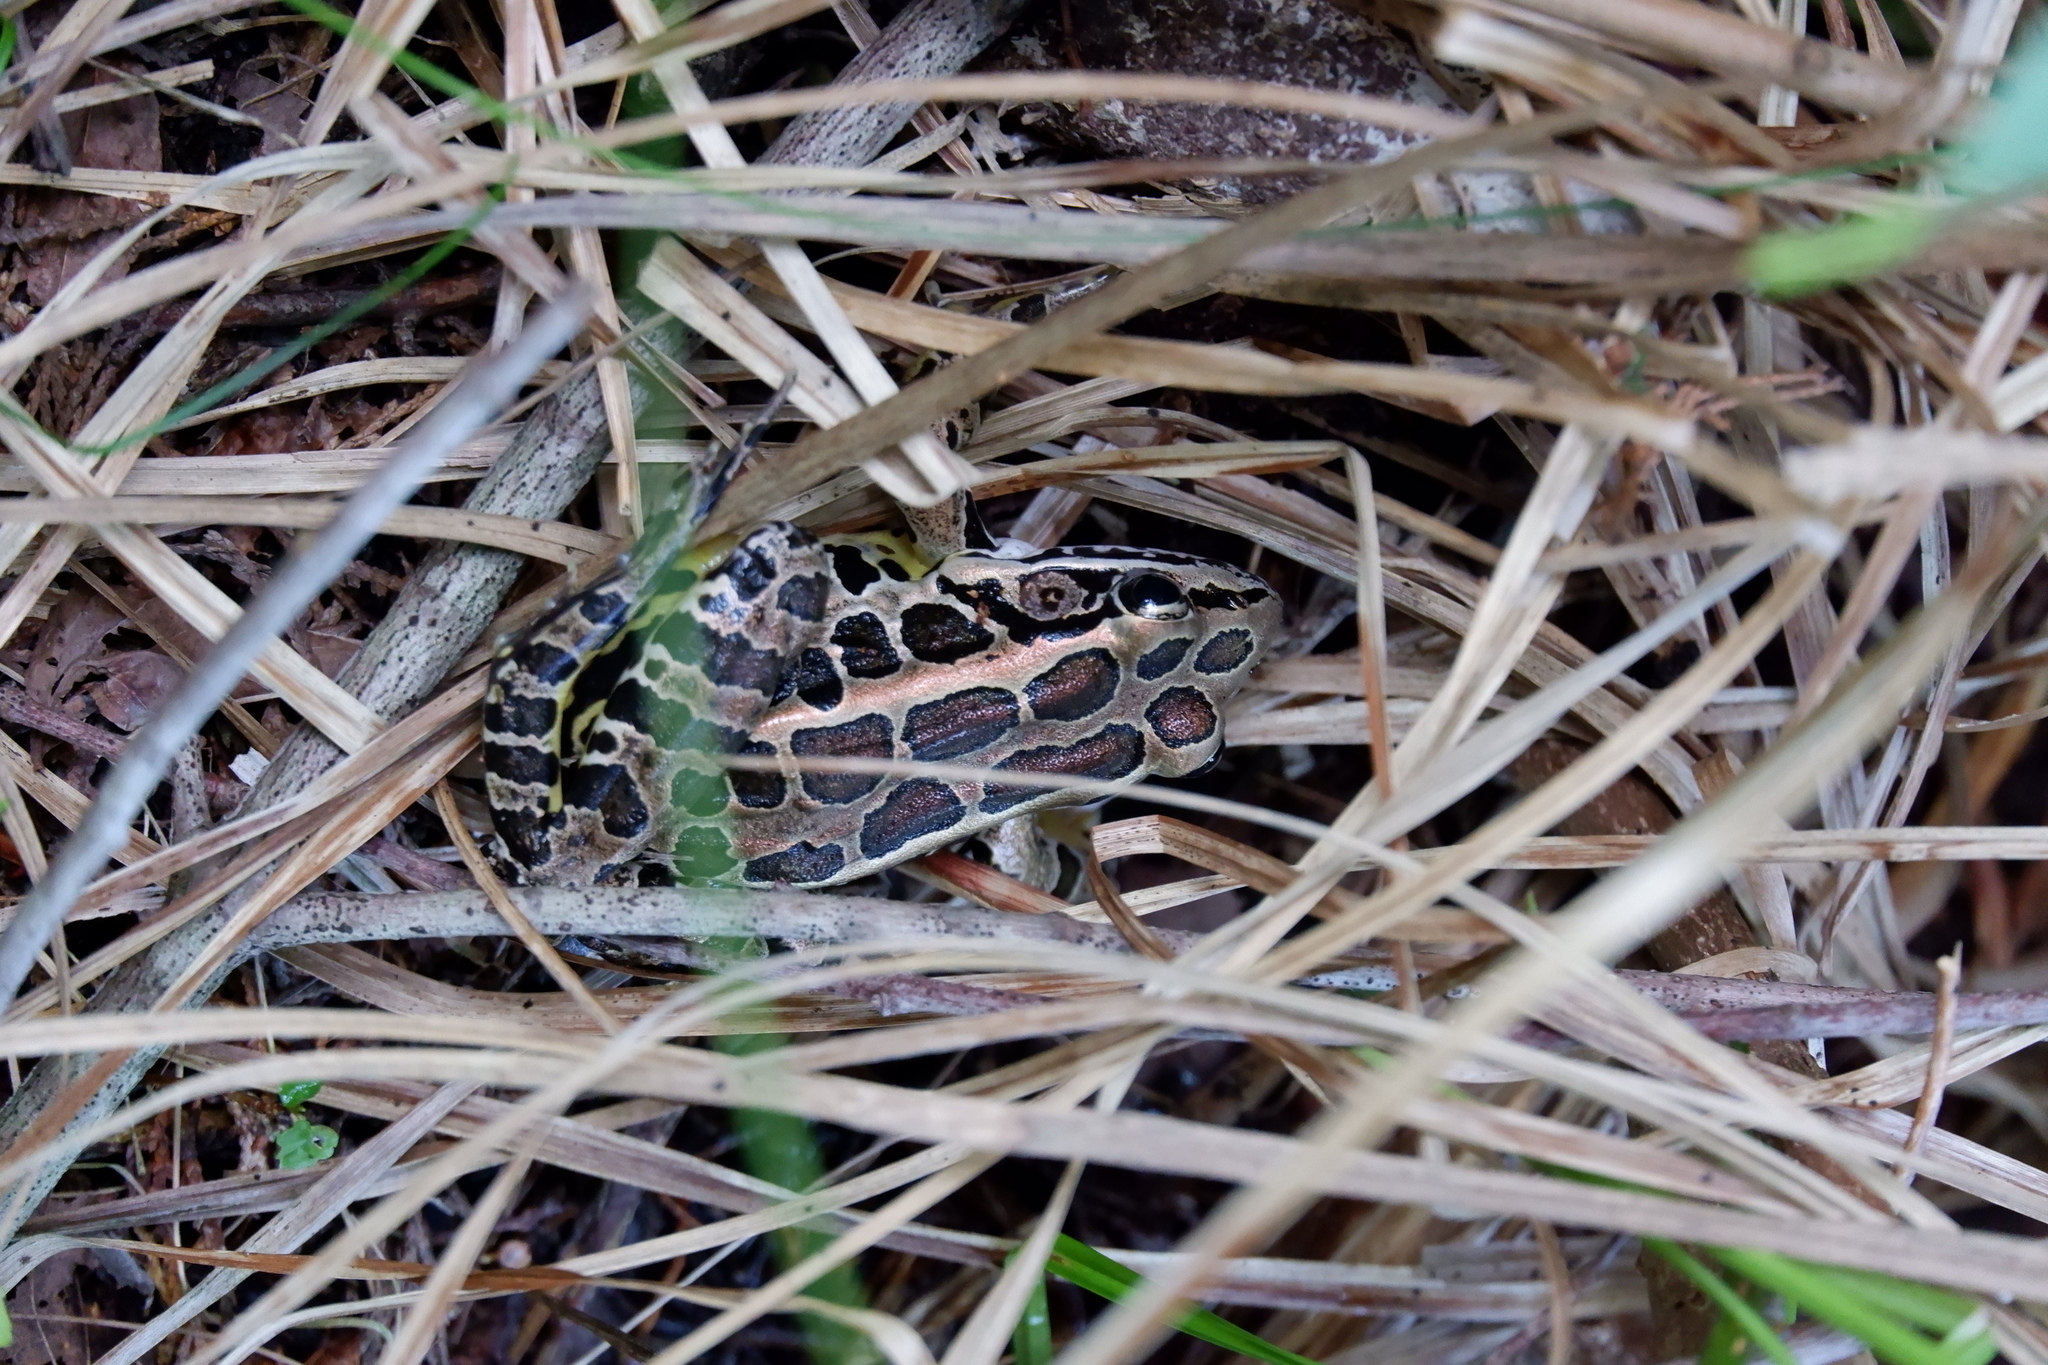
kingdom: Animalia
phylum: Chordata
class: Amphibia
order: Anura
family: Ranidae
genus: Lithobates
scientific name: Lithobates palustris
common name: Pickerel frog
